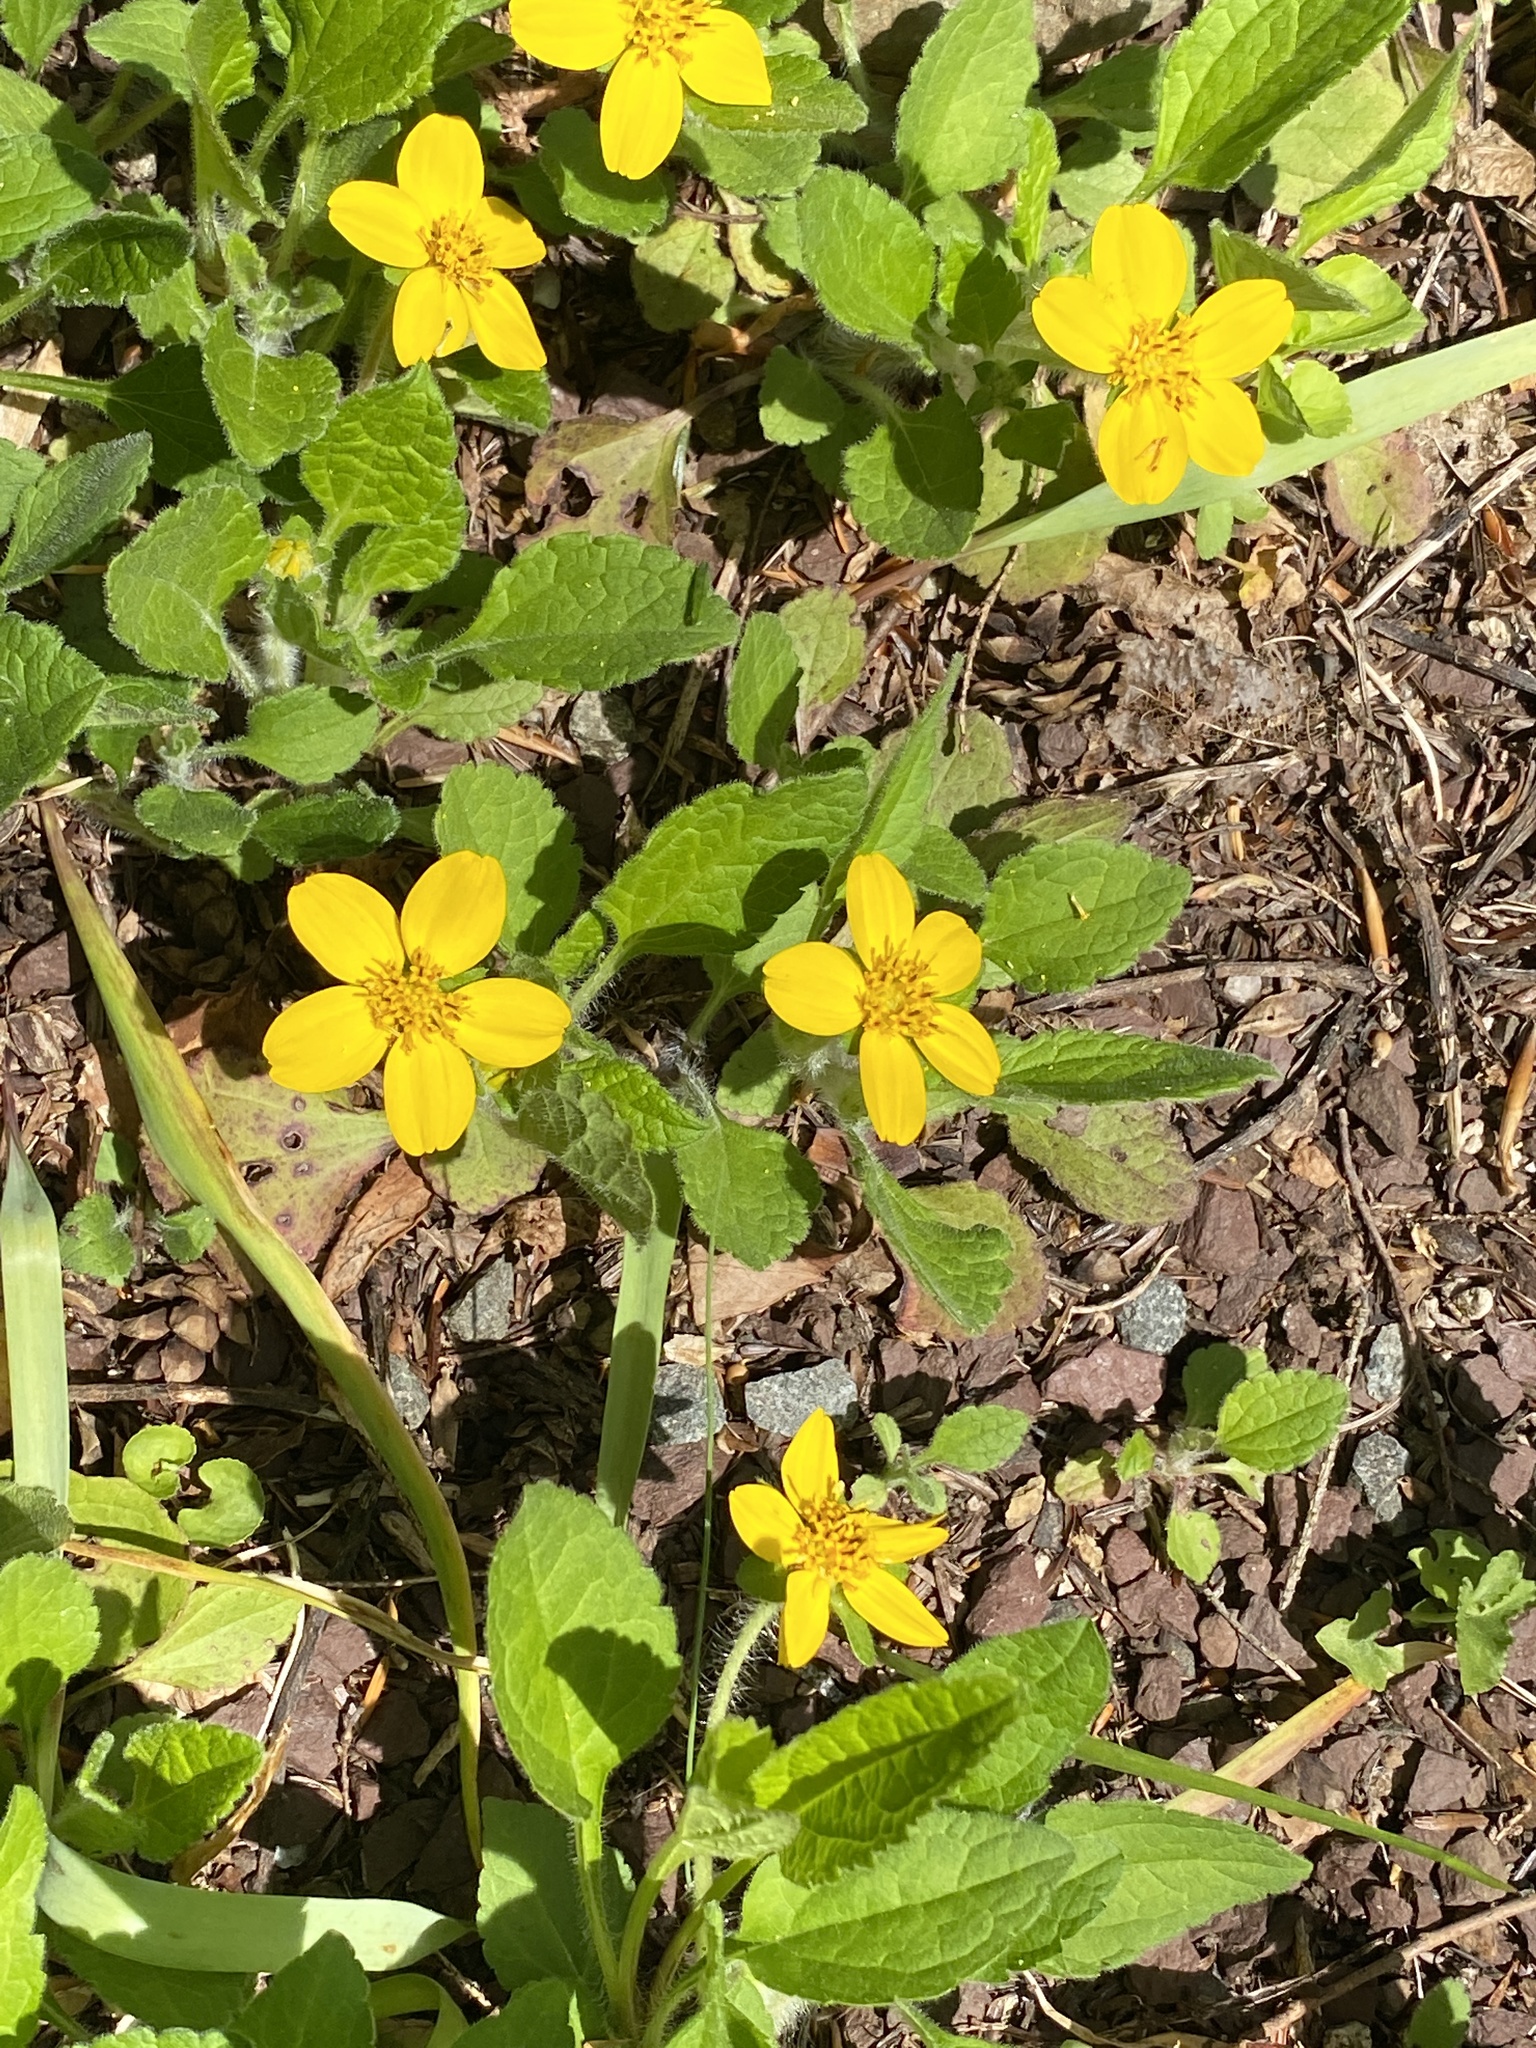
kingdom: Plantae
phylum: Tracheophyta
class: Magnoliopsida
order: Asterales
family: Asteraceae
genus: Chrysogonum
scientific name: Chrysogonum virginianum
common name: Golden-knee
